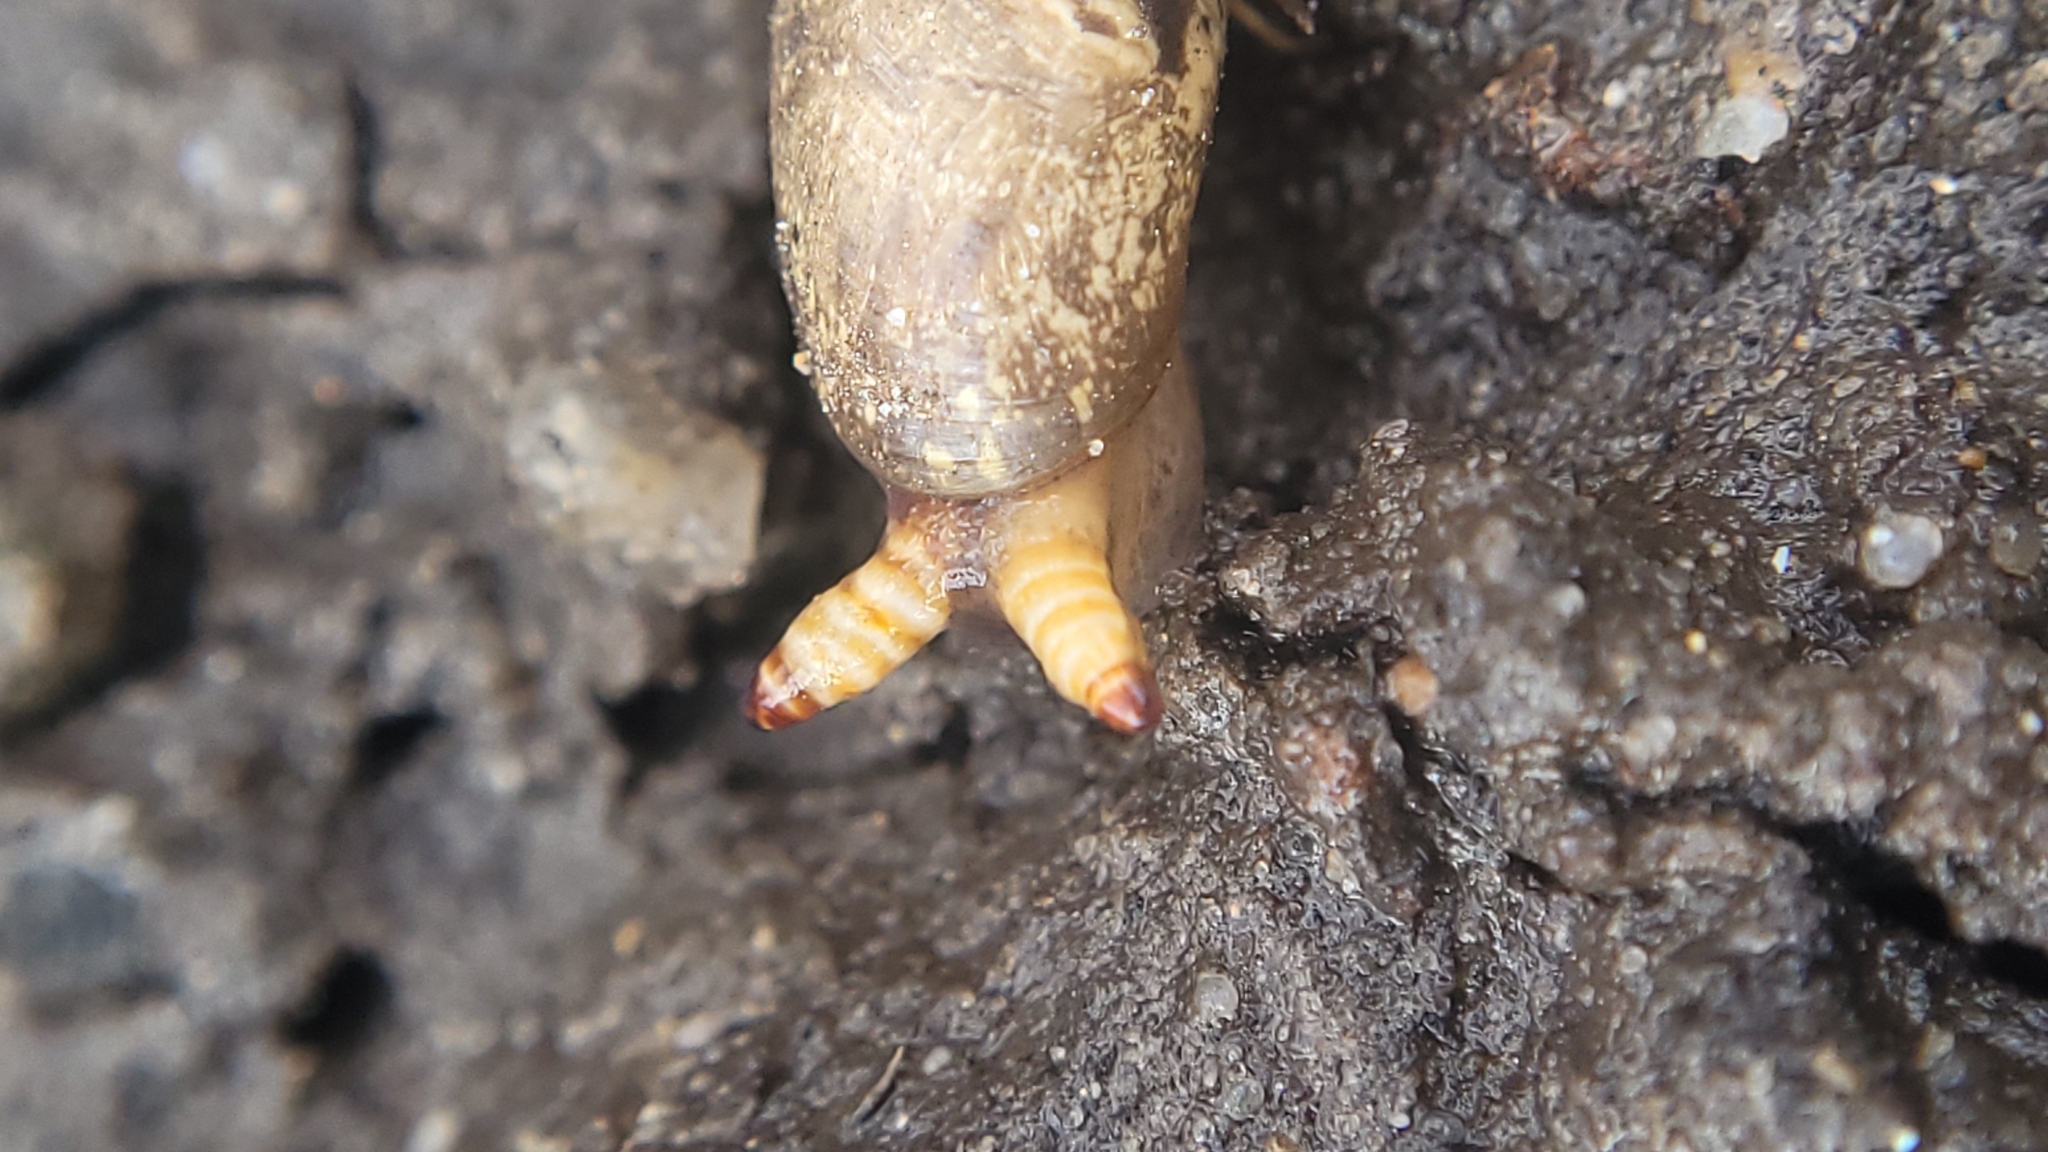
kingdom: Animalia
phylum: Platyhelminthes
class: Trematoda
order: Diplostomida
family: Leucochloridiidae
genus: Leucochloridium
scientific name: Leucochloridium perturbatum
